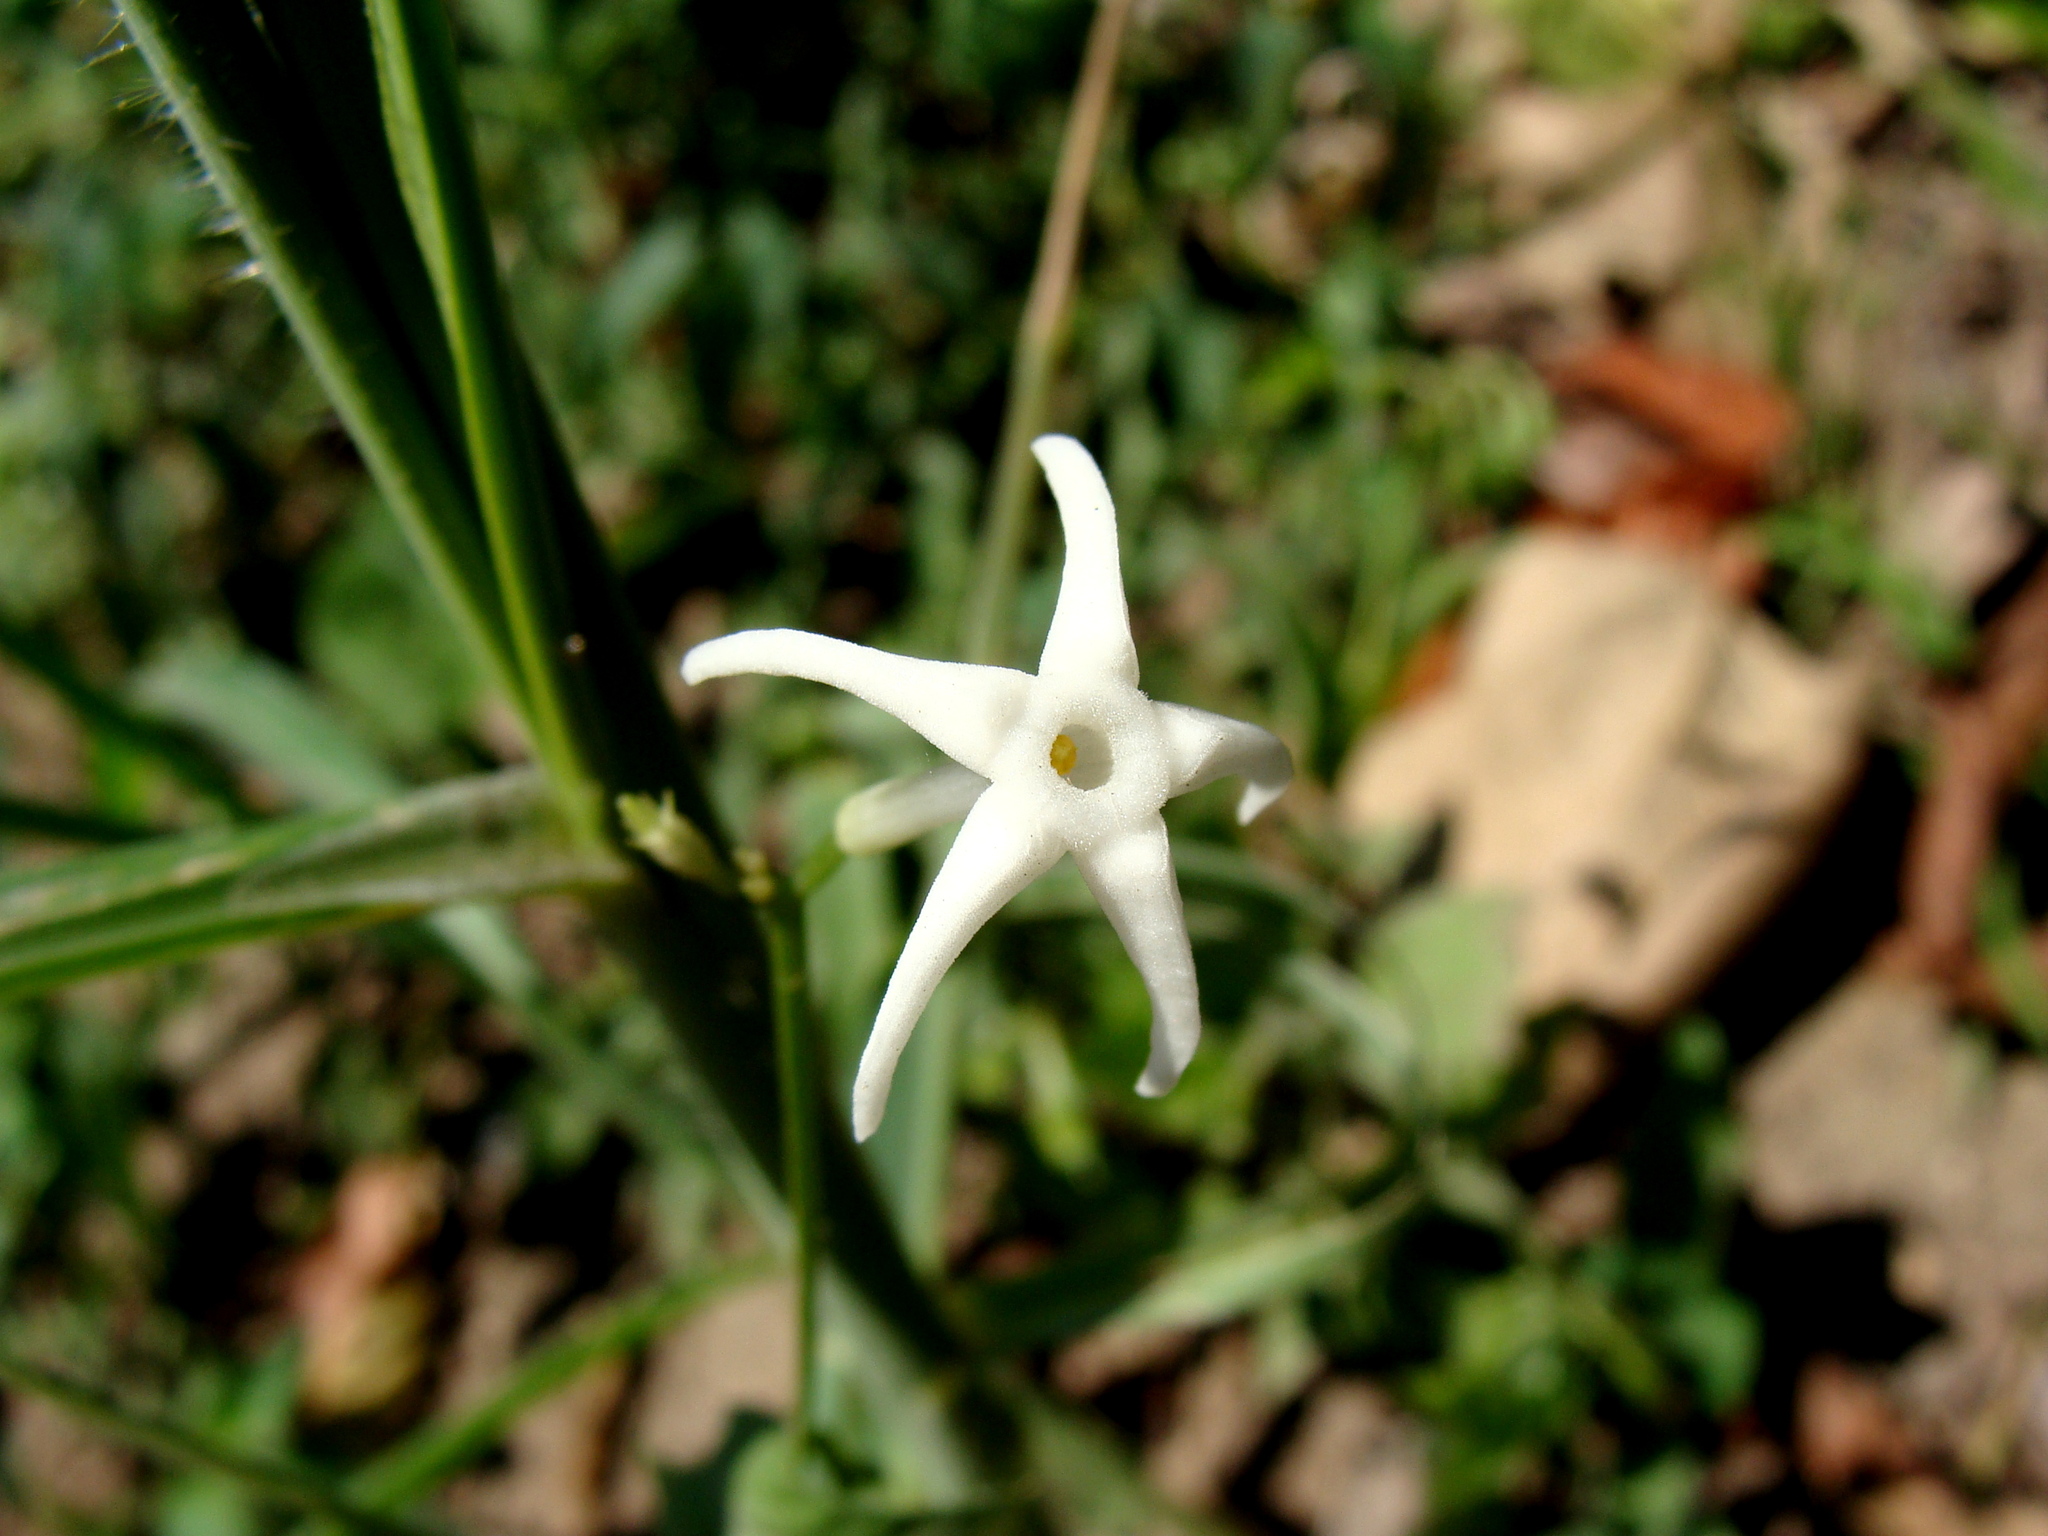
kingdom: Plantae
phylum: Tracheophyta
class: Magnoliopsida
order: Cucurbitales
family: Cucurbitaceae
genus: Cyclanthera
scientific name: Cyclanthera carthagenensis
